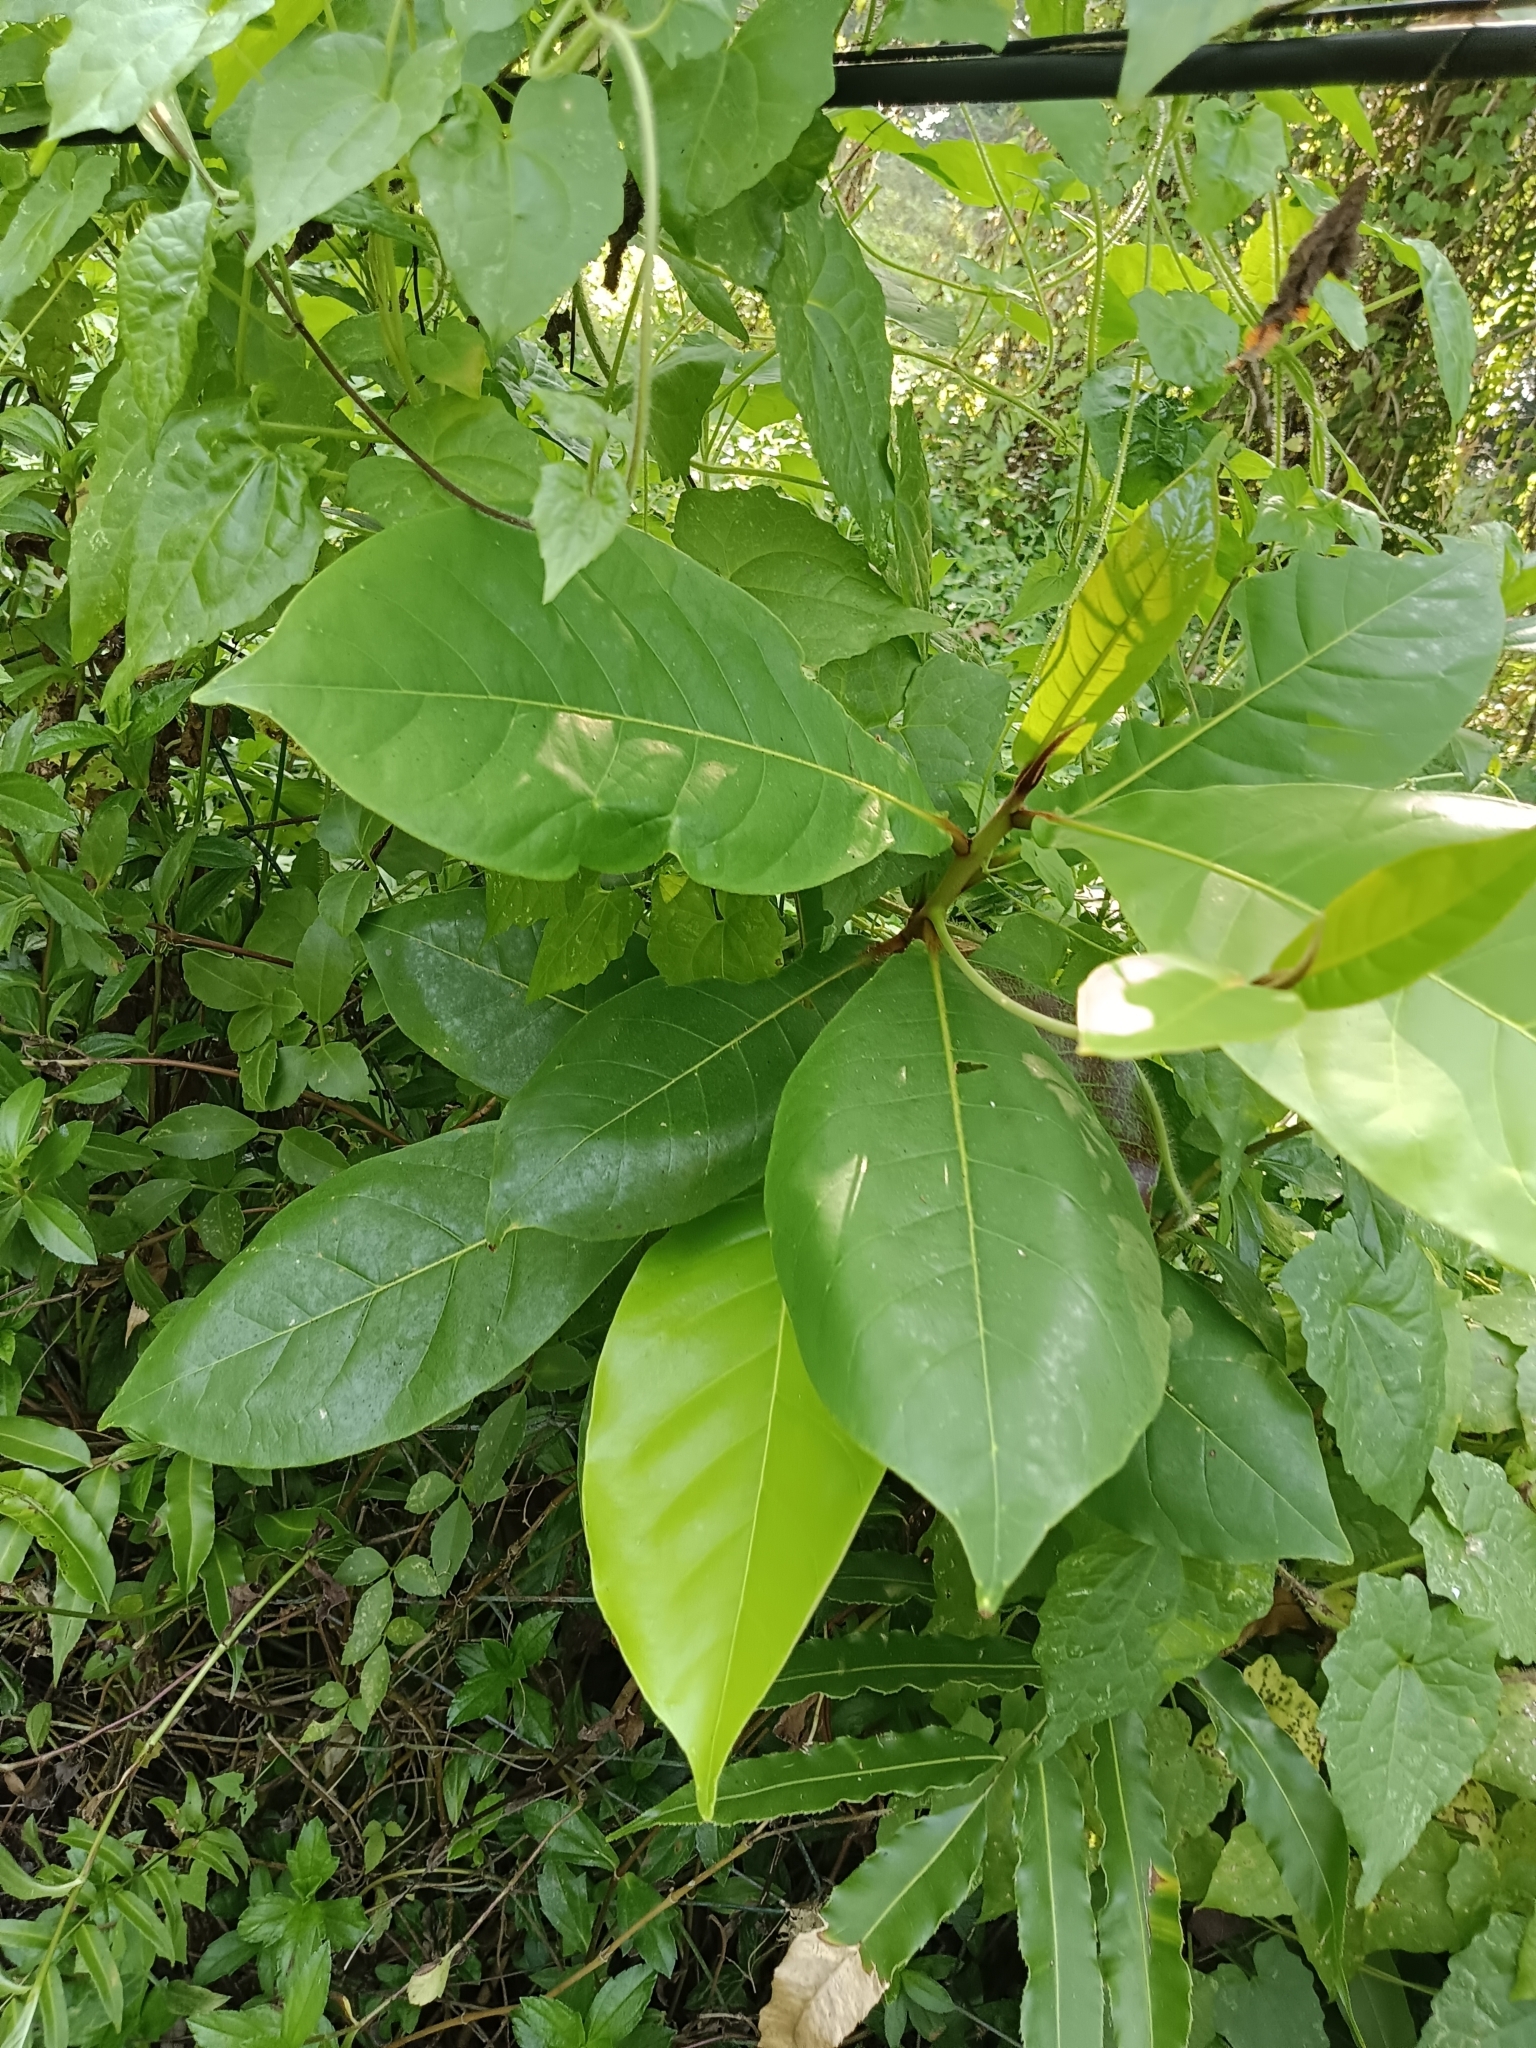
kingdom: Plantae
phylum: Tracheophyta
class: Magnoliopsida
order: Myrtales
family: Combretaceae
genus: Terminalia
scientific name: Terminalia catappa
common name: Tropical almond
